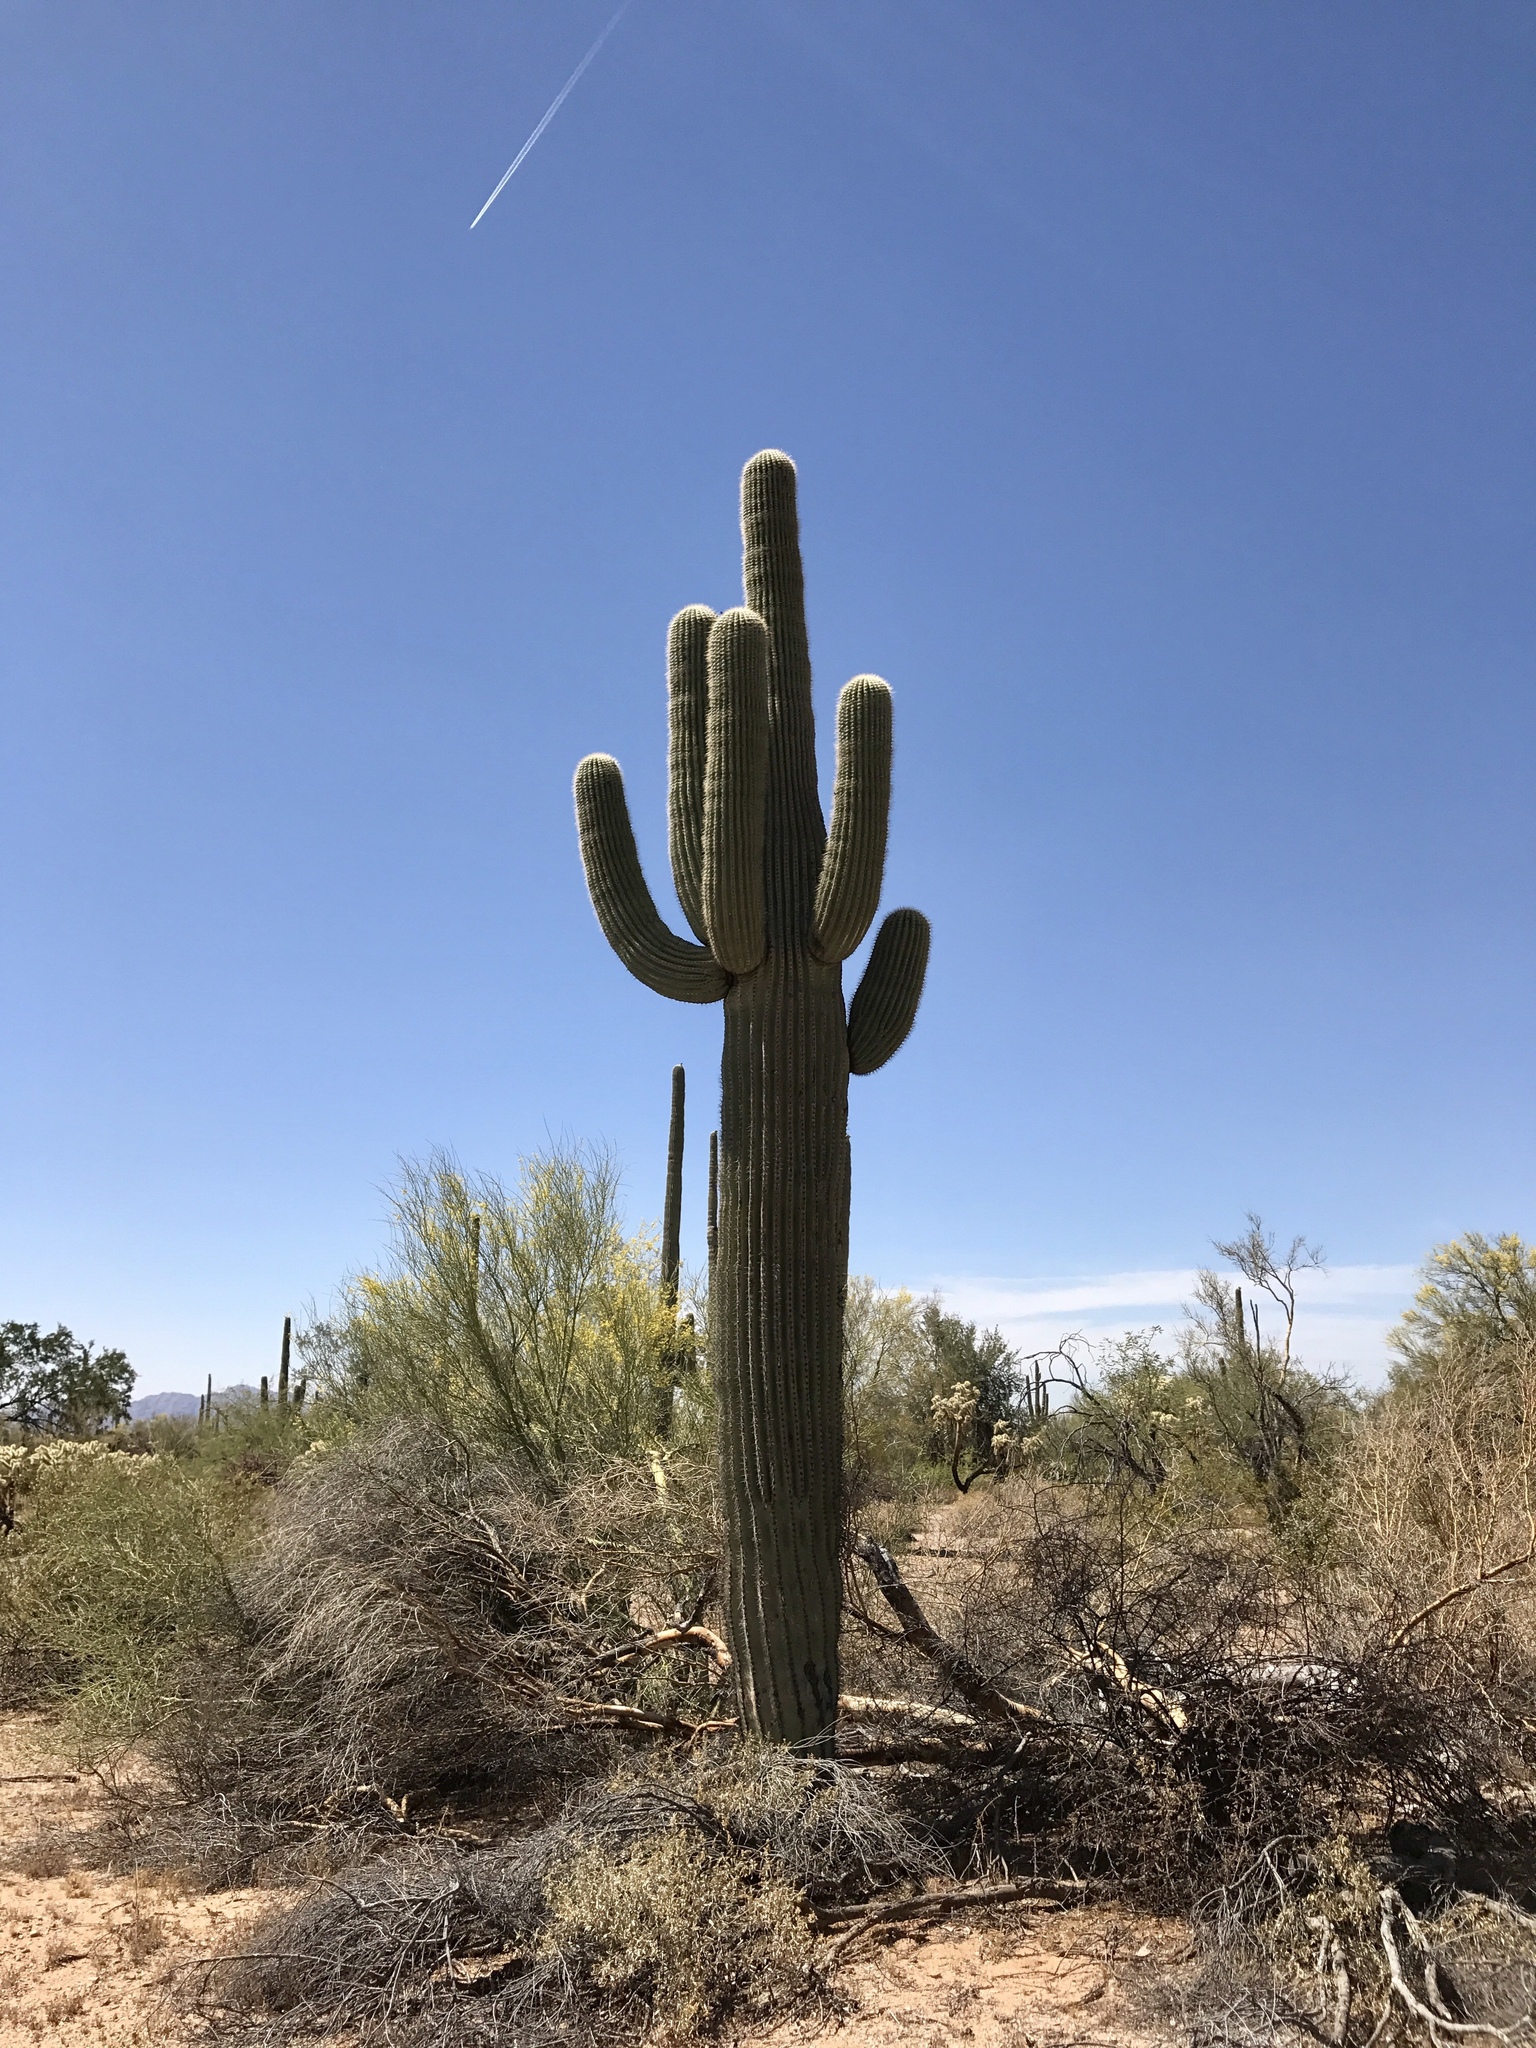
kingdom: Plantae
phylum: Tracheophyta
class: Magnoliopsida
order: Caryophyllales
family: Cactaceae
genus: Carnegiea
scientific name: Carnegiea gigantea
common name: Saguaro
